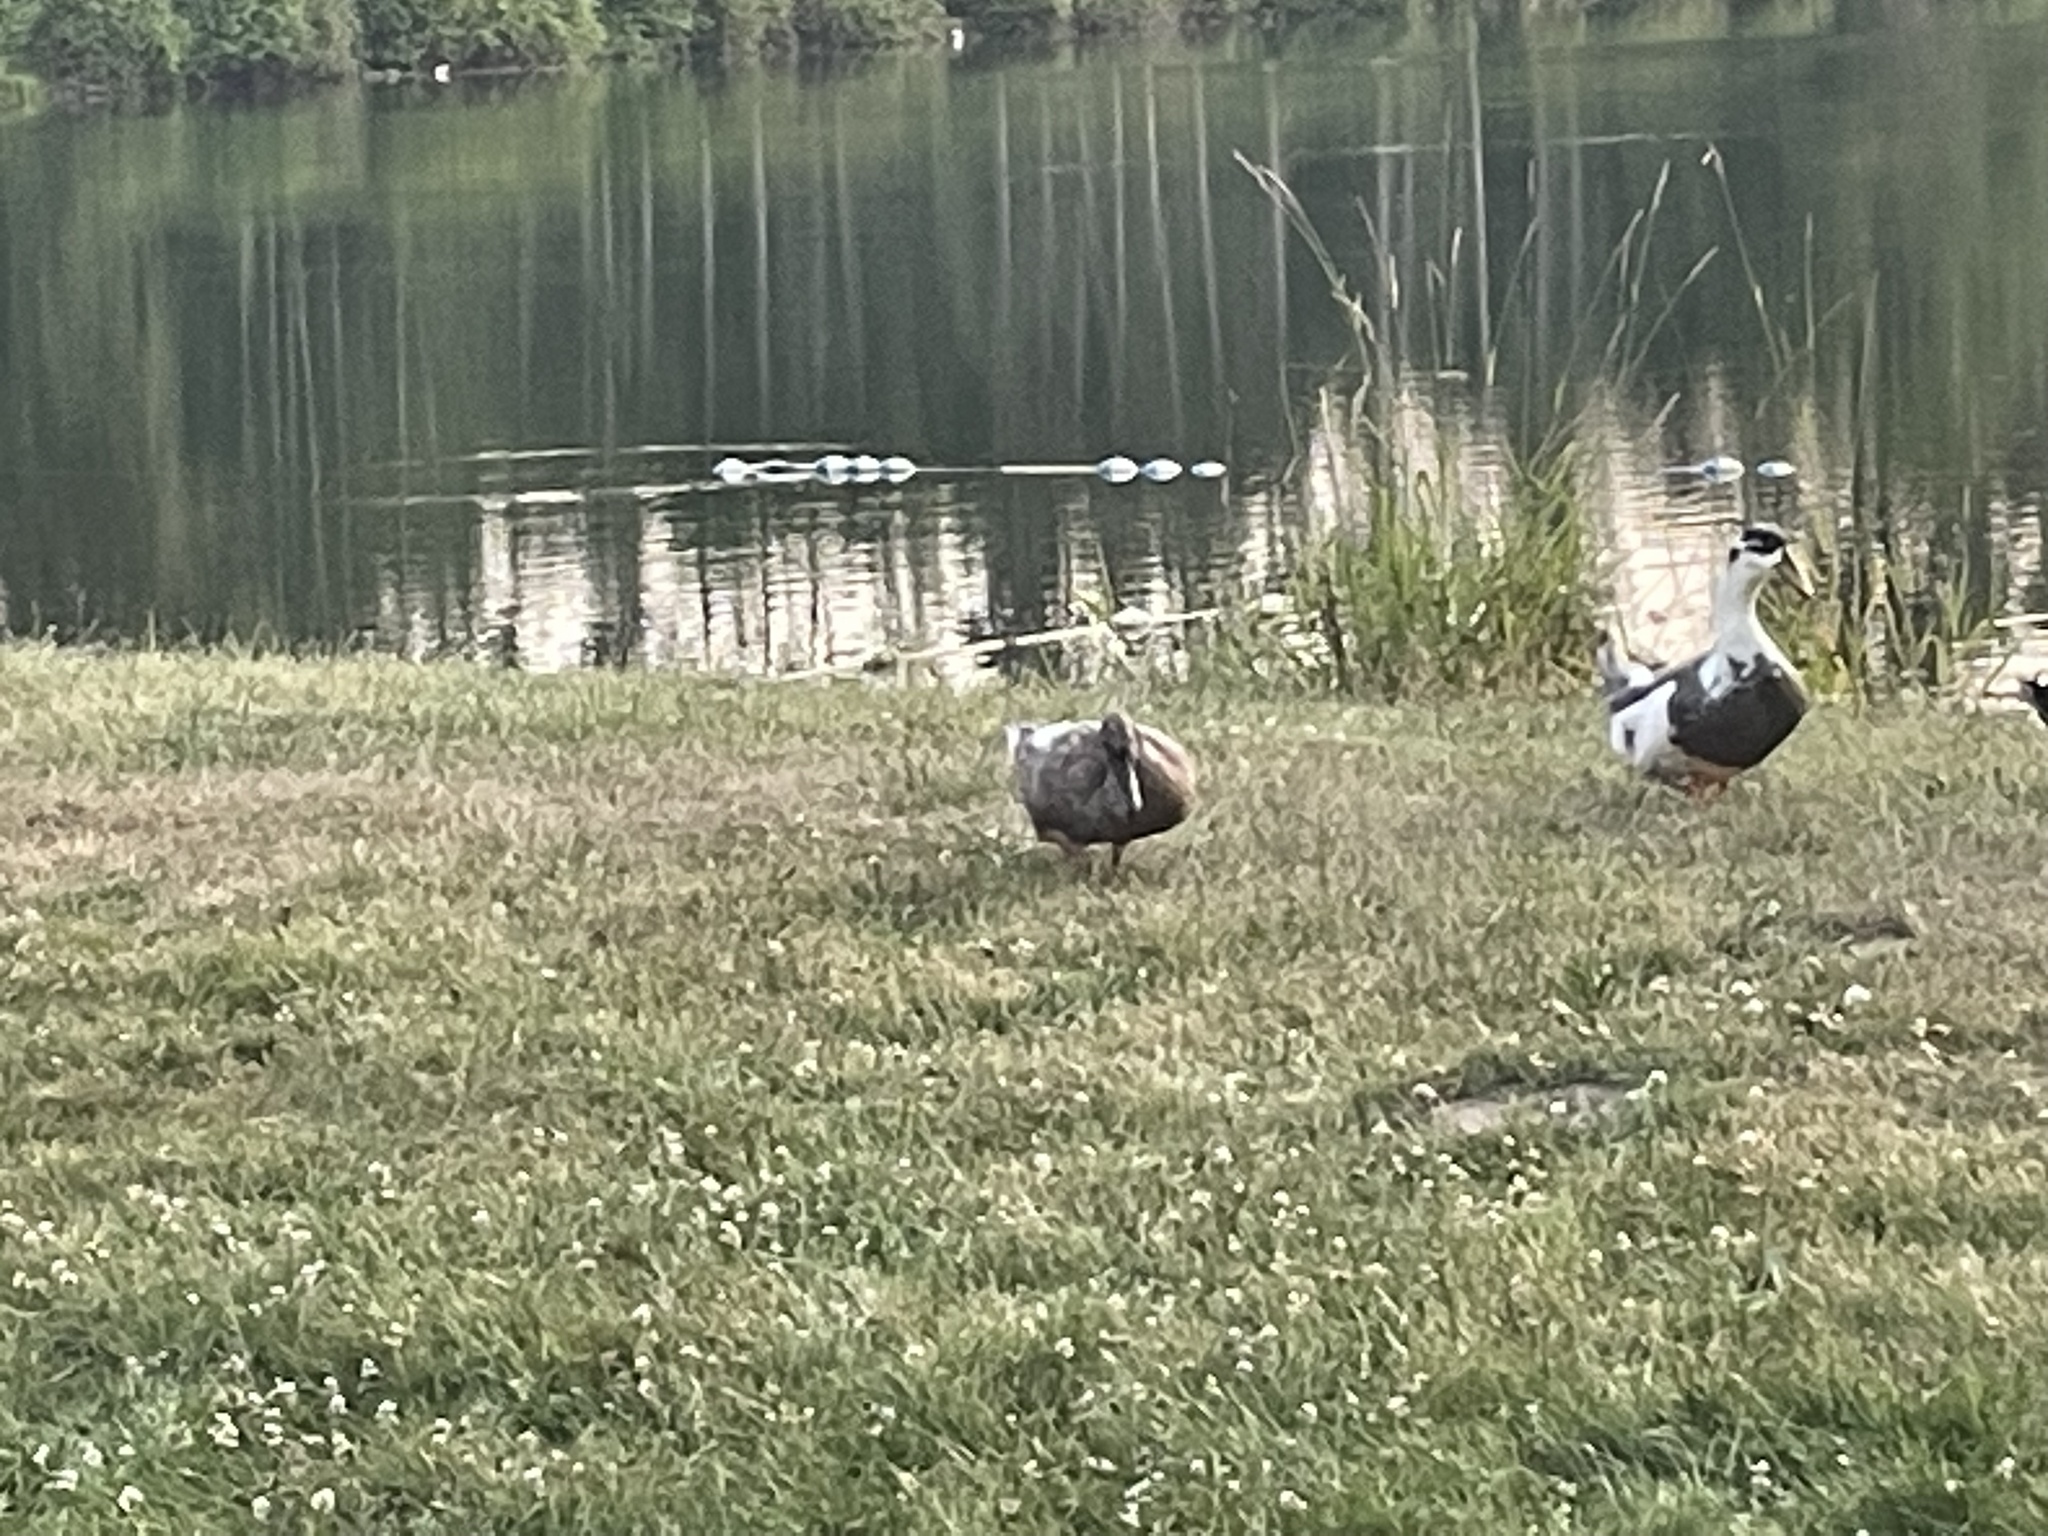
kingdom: Animalia
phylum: Chordata
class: Aves
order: Anseriformes
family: Anatidae
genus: Anas
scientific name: Anas platyrhynchos
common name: Mallard
